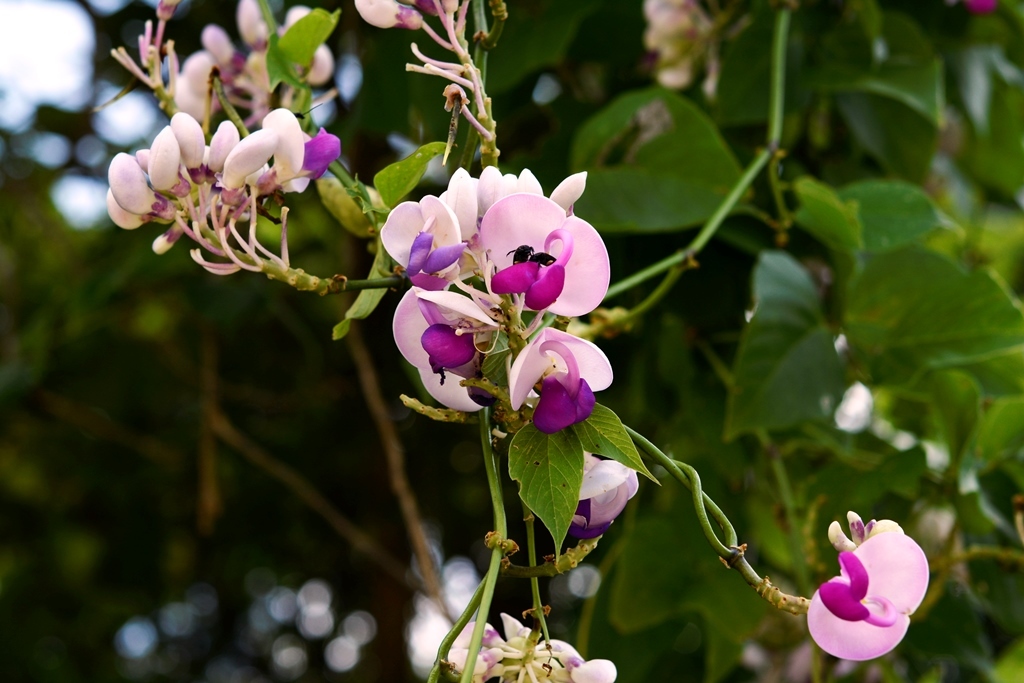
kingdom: Plantae
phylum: Tracheophyta
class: Magnoliopsida
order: Fabales
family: Fabaceae
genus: Ramirezella
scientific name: Ramirezella penduliflora
